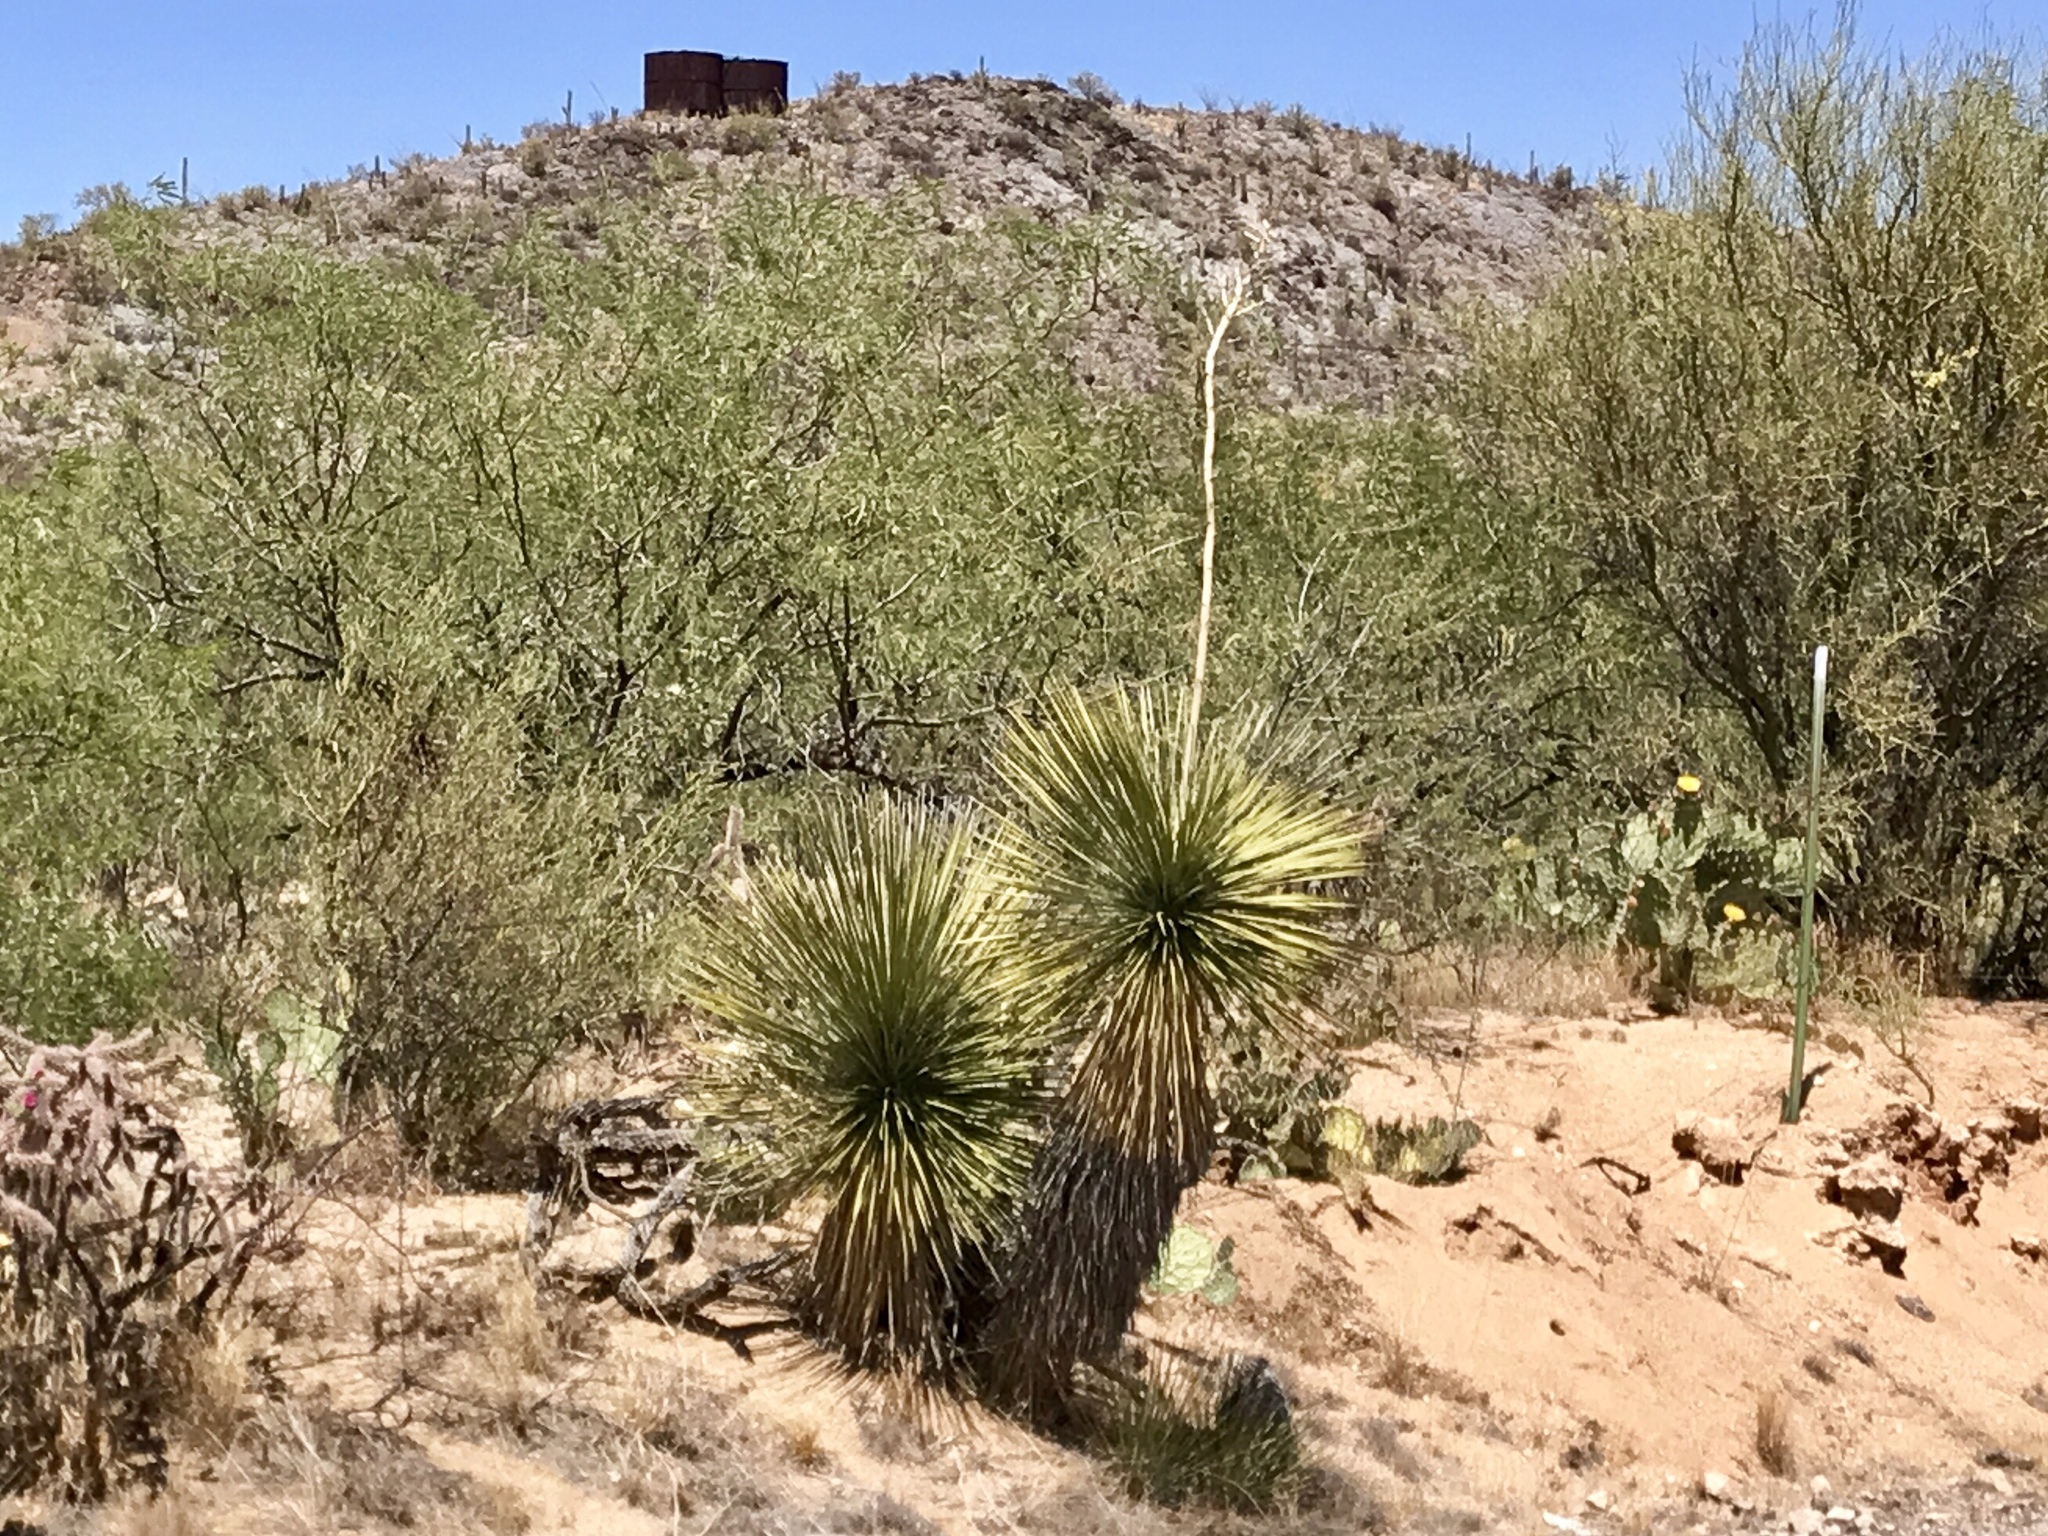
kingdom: Plantae
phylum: Tracheophyta
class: Liliopsida
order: Asparagales
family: Asparagaceae
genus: Yucca
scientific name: Yucca elata
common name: Palmella
